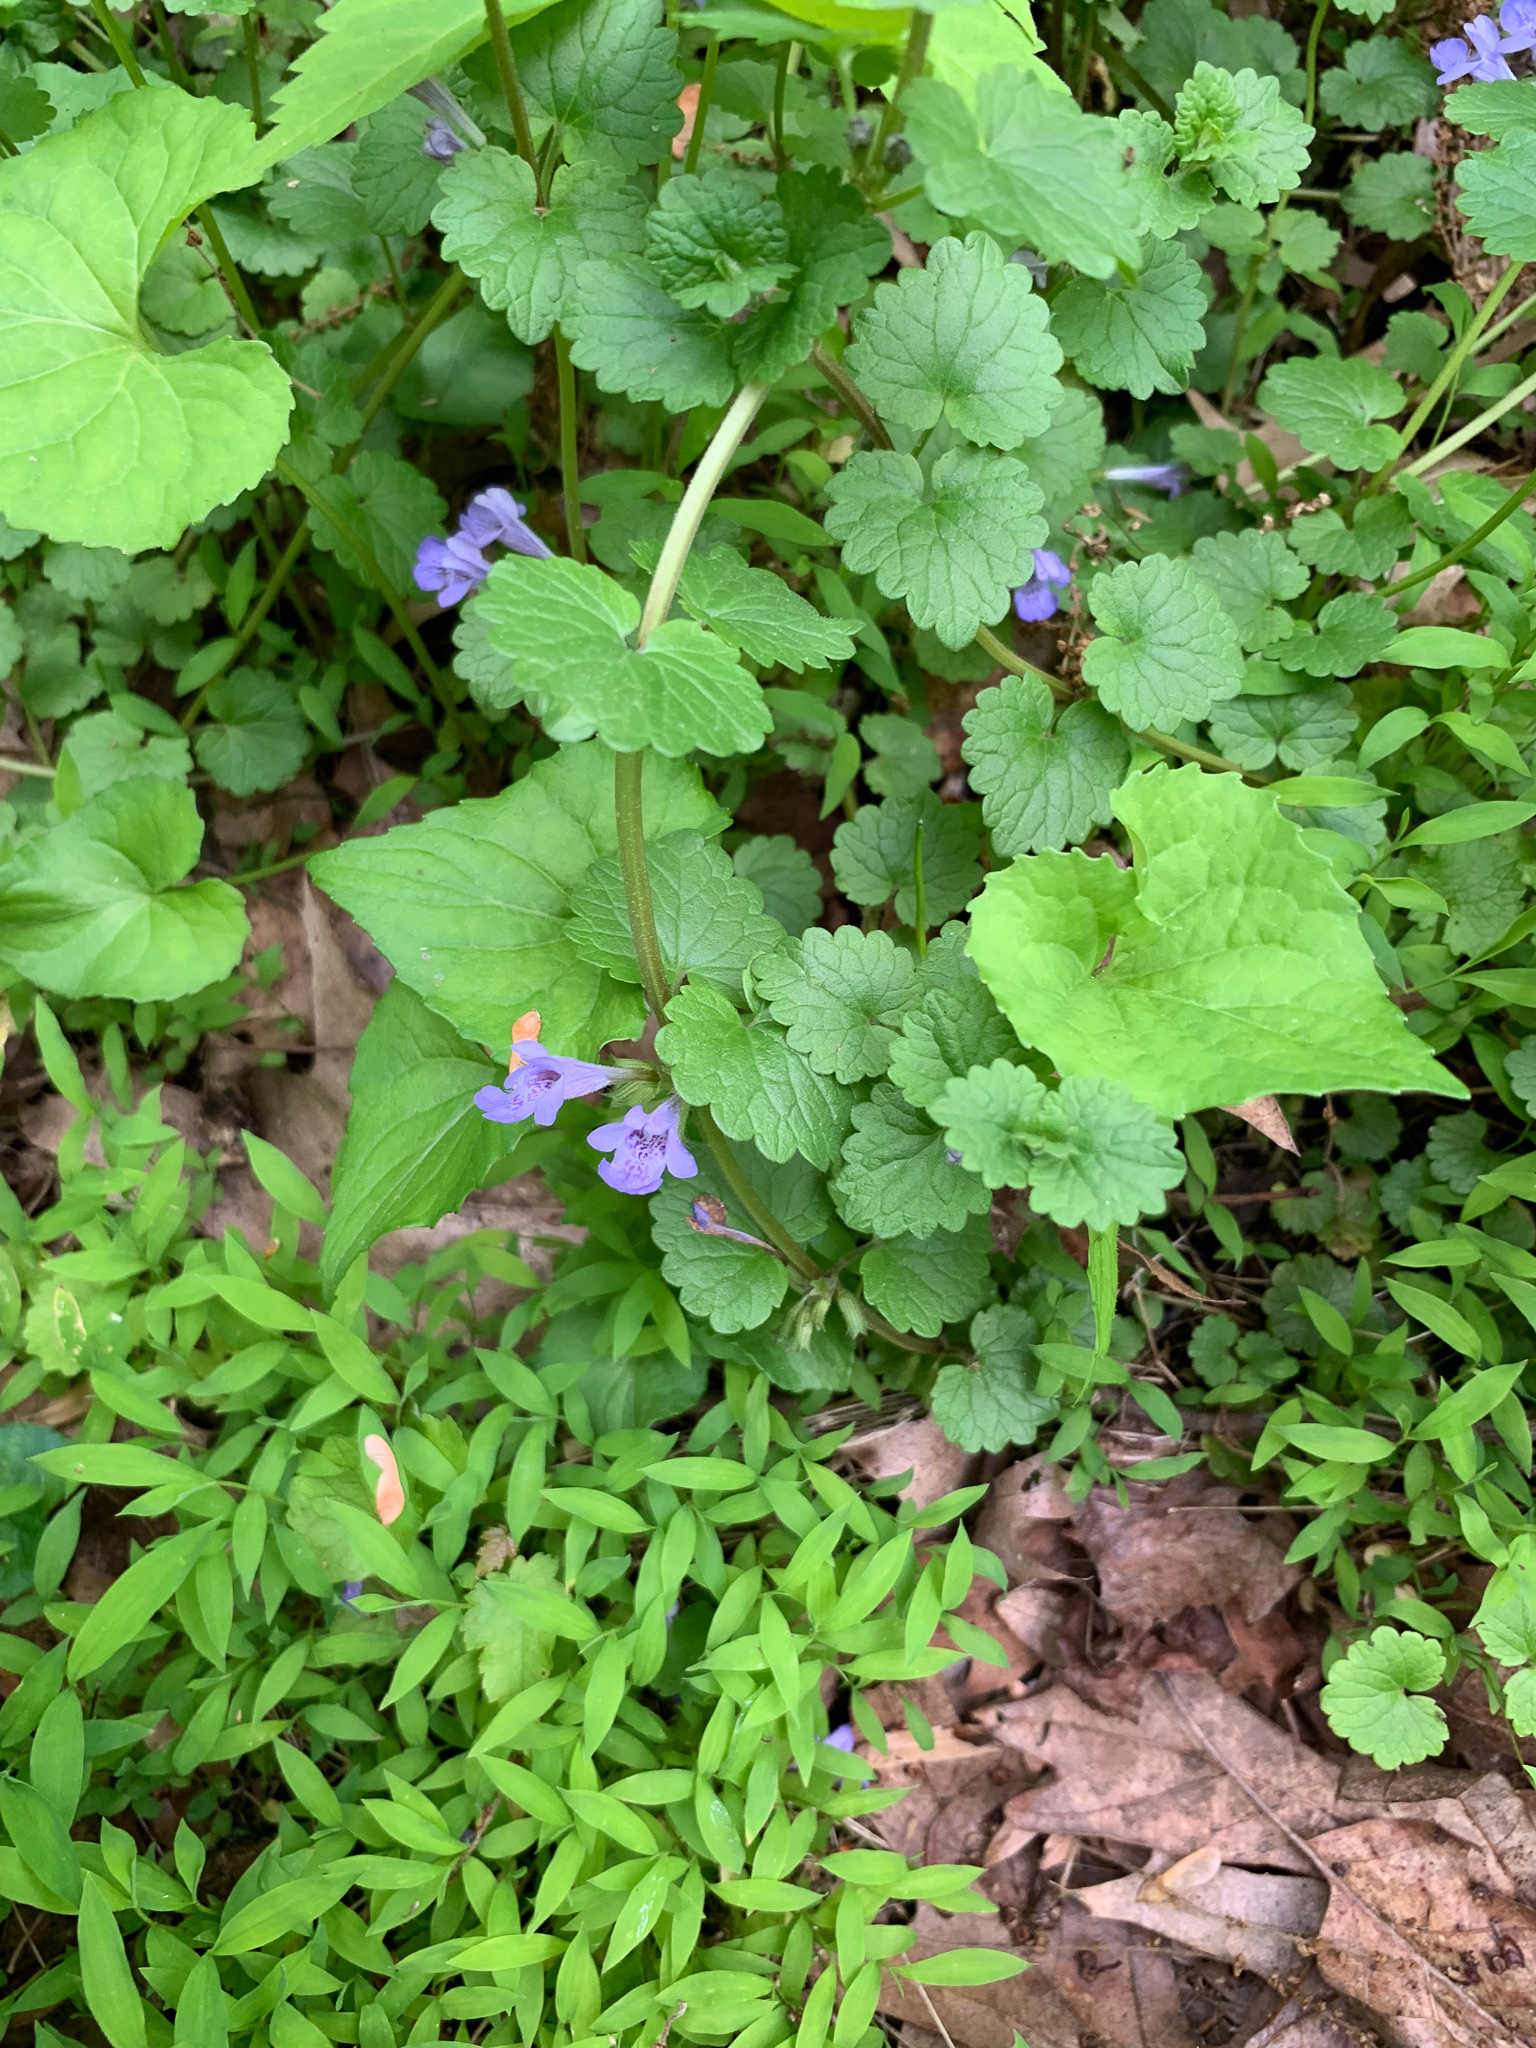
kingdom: Plantae
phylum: Tracheophyta
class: Magnoliopsida
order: Lamiales
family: Lamiaceae
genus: Glechoma
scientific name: Glechoma hederacea
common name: Ground ivy
